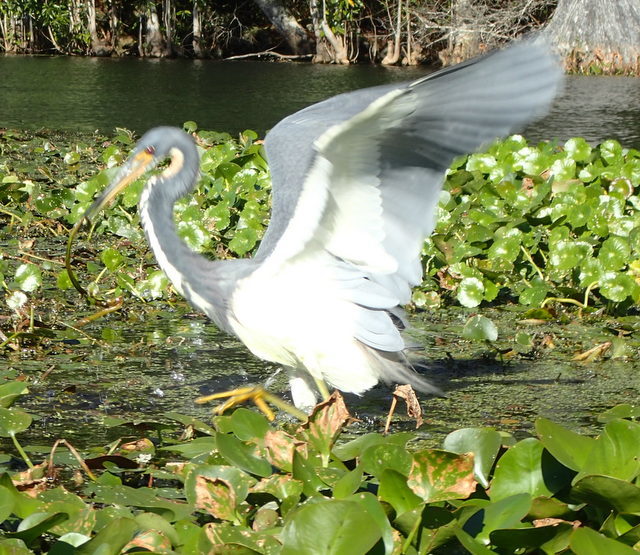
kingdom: Animalia
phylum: Chordata
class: Aves
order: Pelecaniformes
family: Ardeidae
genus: Egretta
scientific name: Egretta tricolor
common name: Tricolored heron
